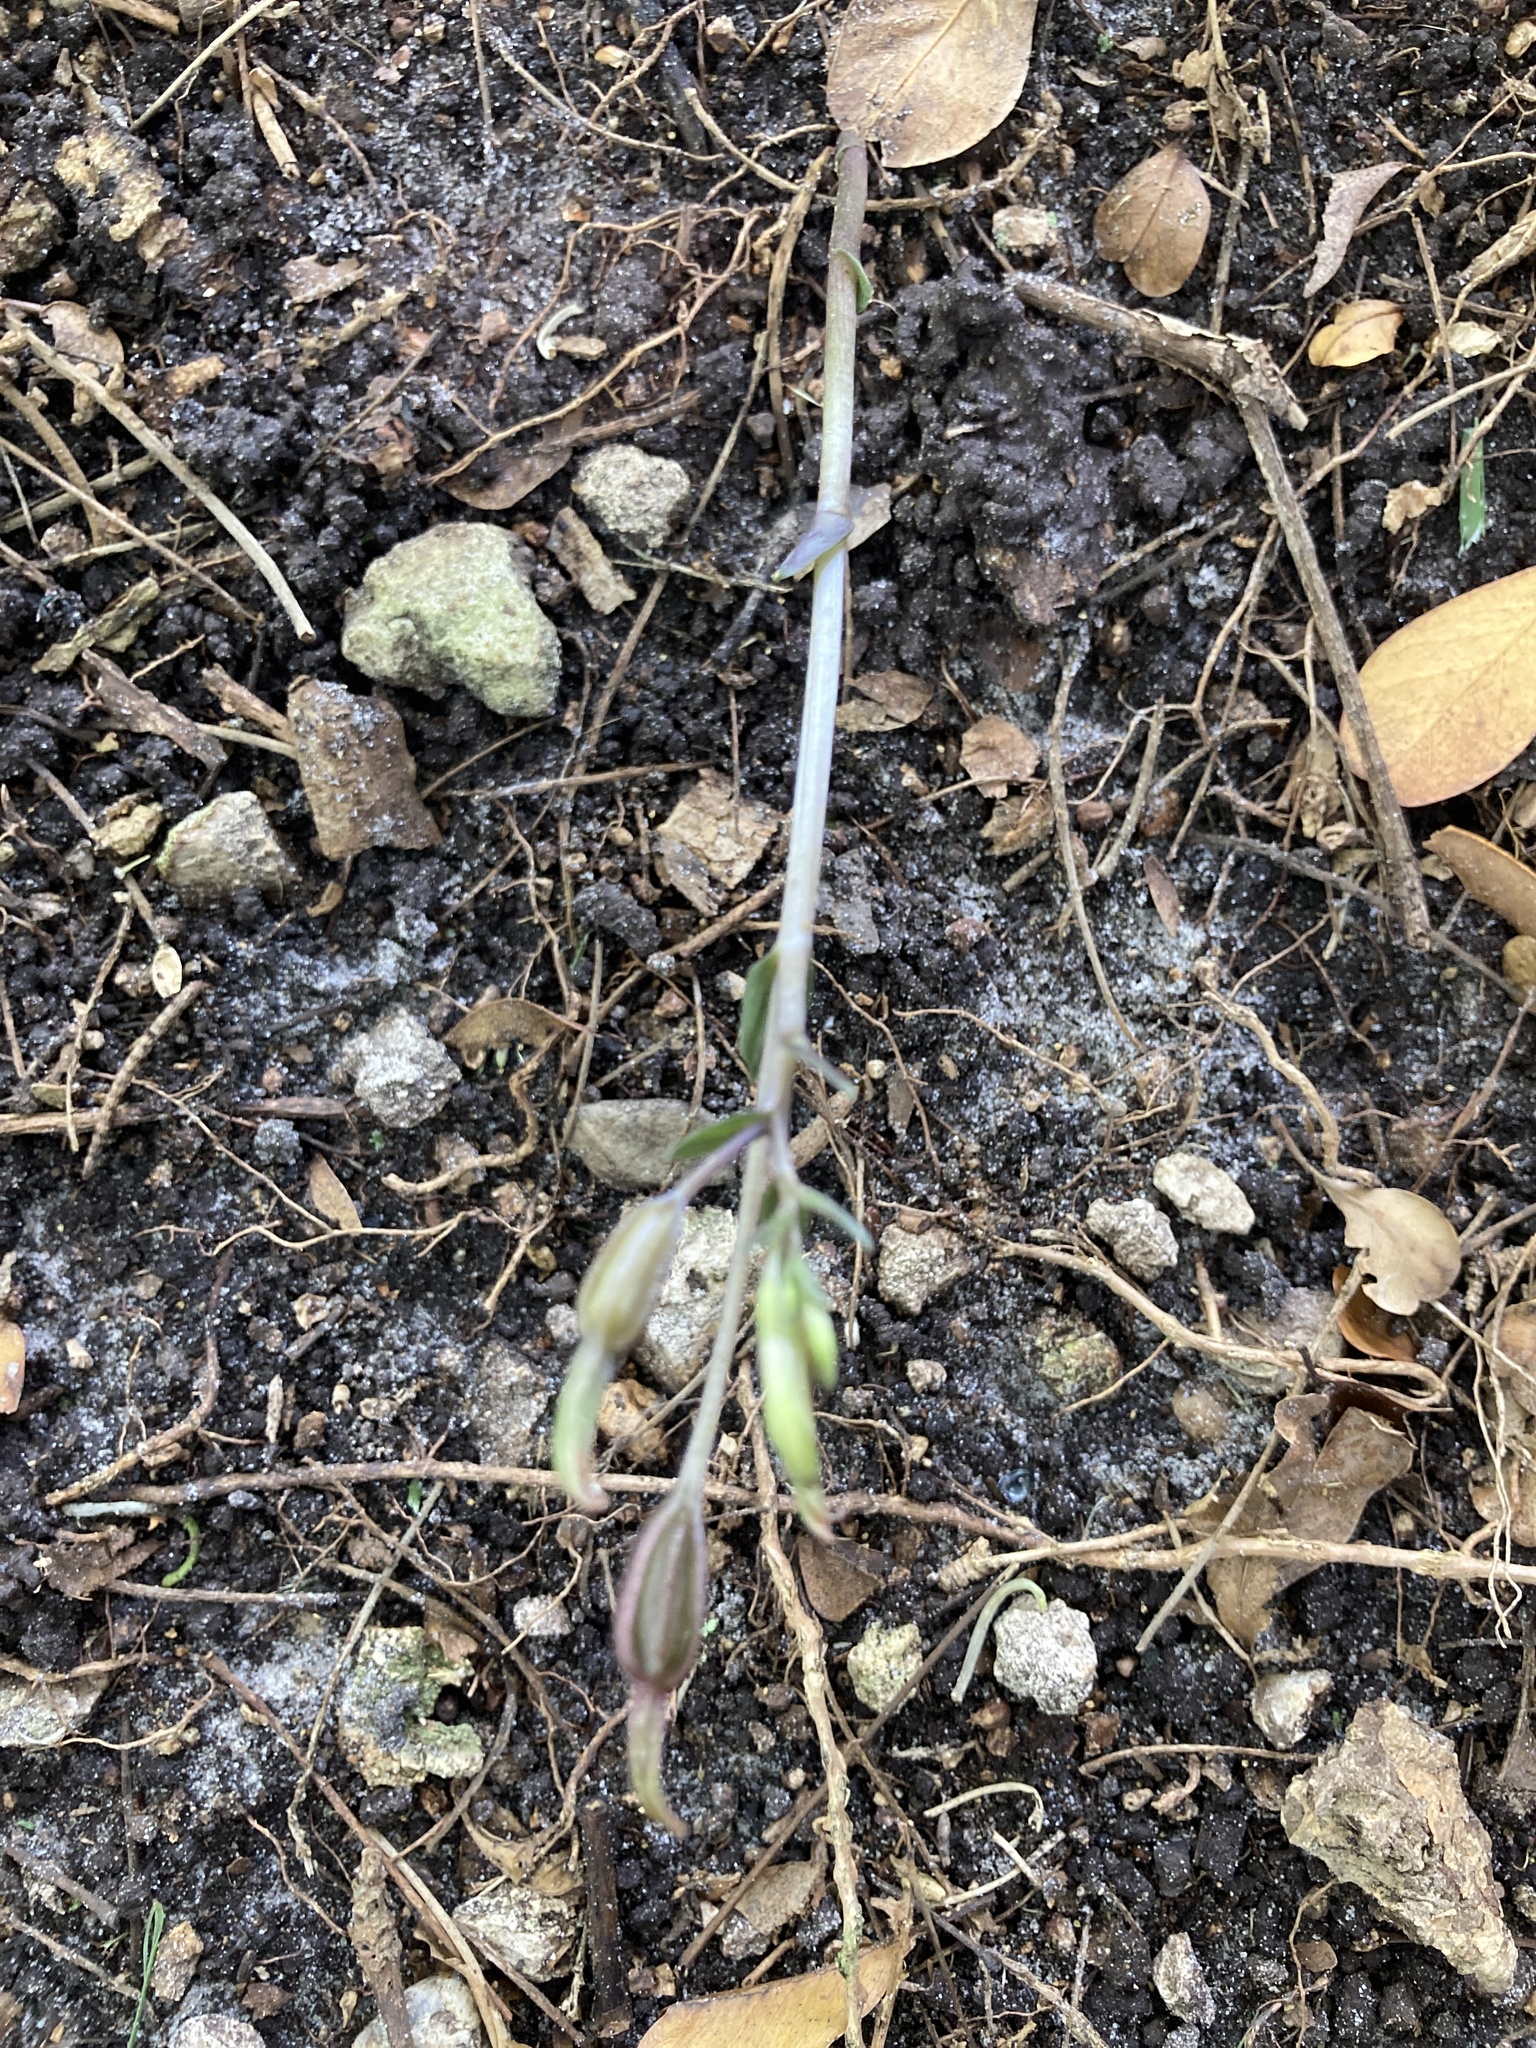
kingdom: Plantae
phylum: Tracheophyta
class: Liliopsida
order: Asparagales
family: Orchidaceae
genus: Triphora
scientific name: Triphora gentianoides
